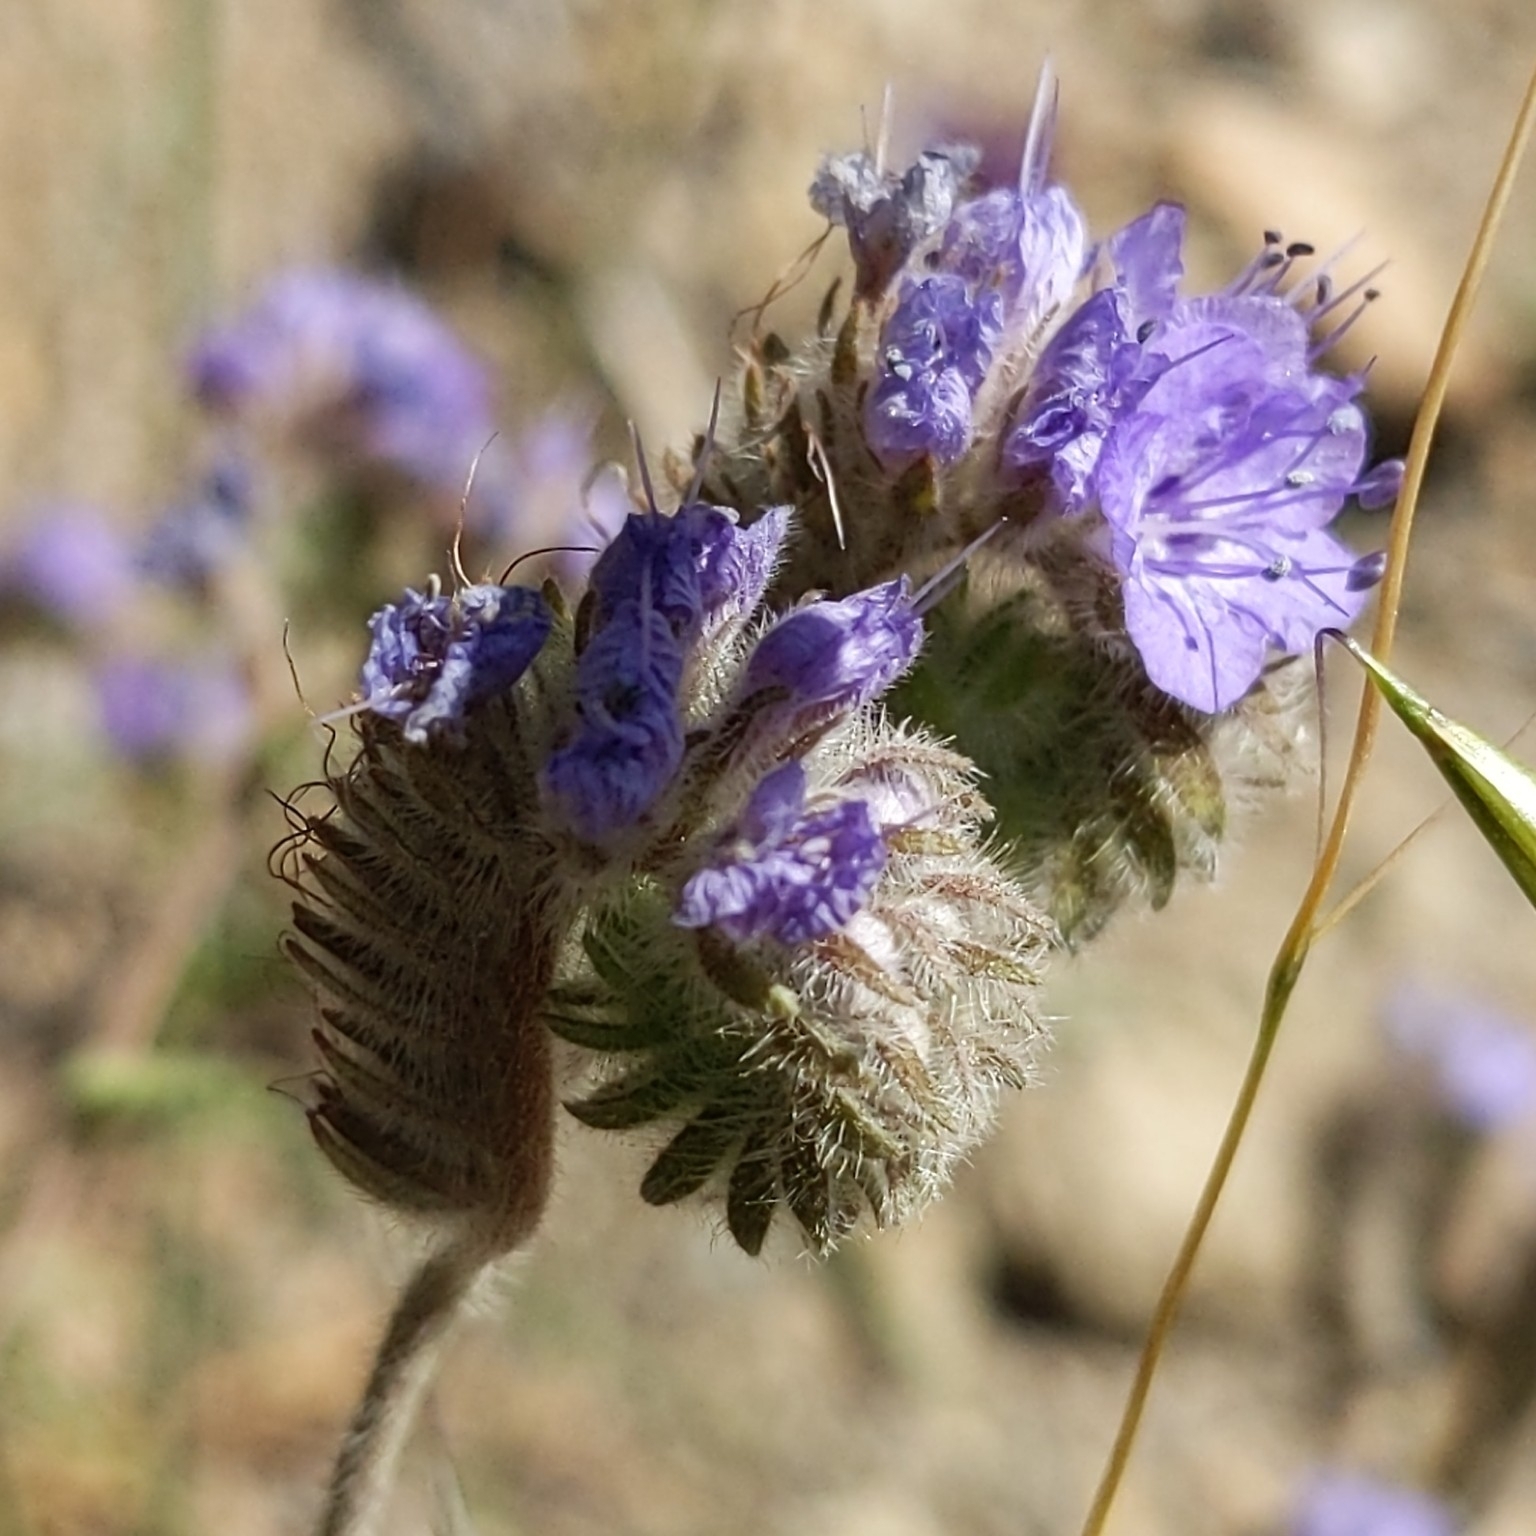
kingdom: Plantae
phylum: Tracheophyta
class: Magnoliopsida
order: Boraginales
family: Hydrophyllaceae
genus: Phacelia
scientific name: Phacelia distans
